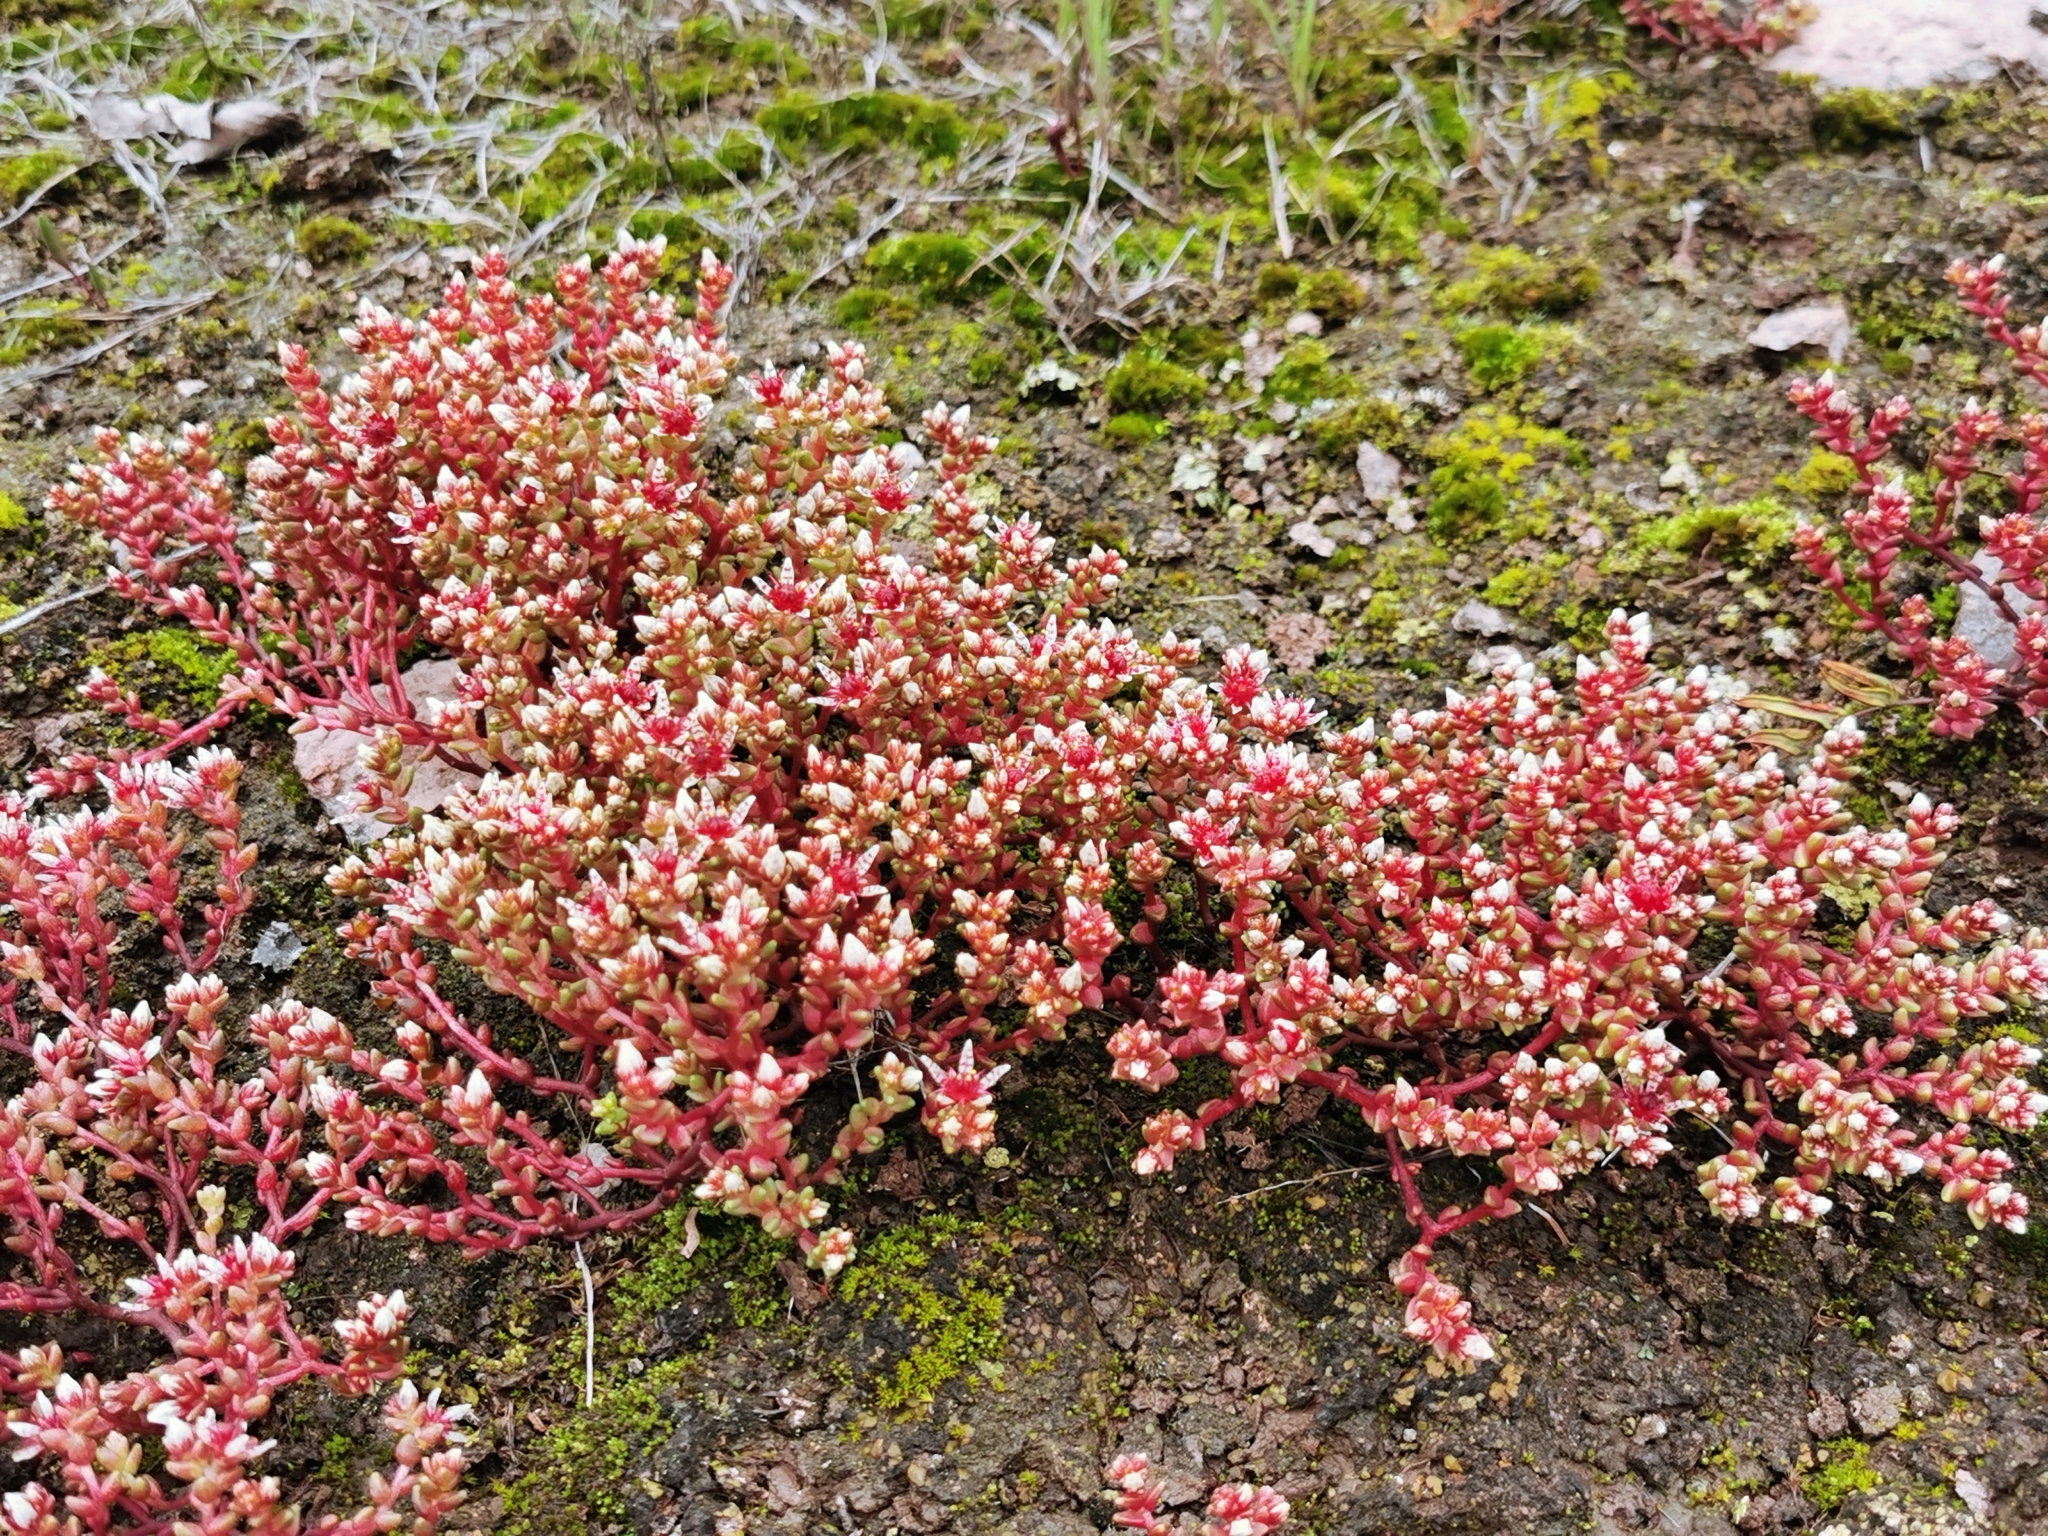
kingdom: Plantae
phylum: Tracheophyta
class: Magnoliopsida
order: Saxifragales
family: Crassulaceae
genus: Sedum
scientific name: Sedum vinicolor
